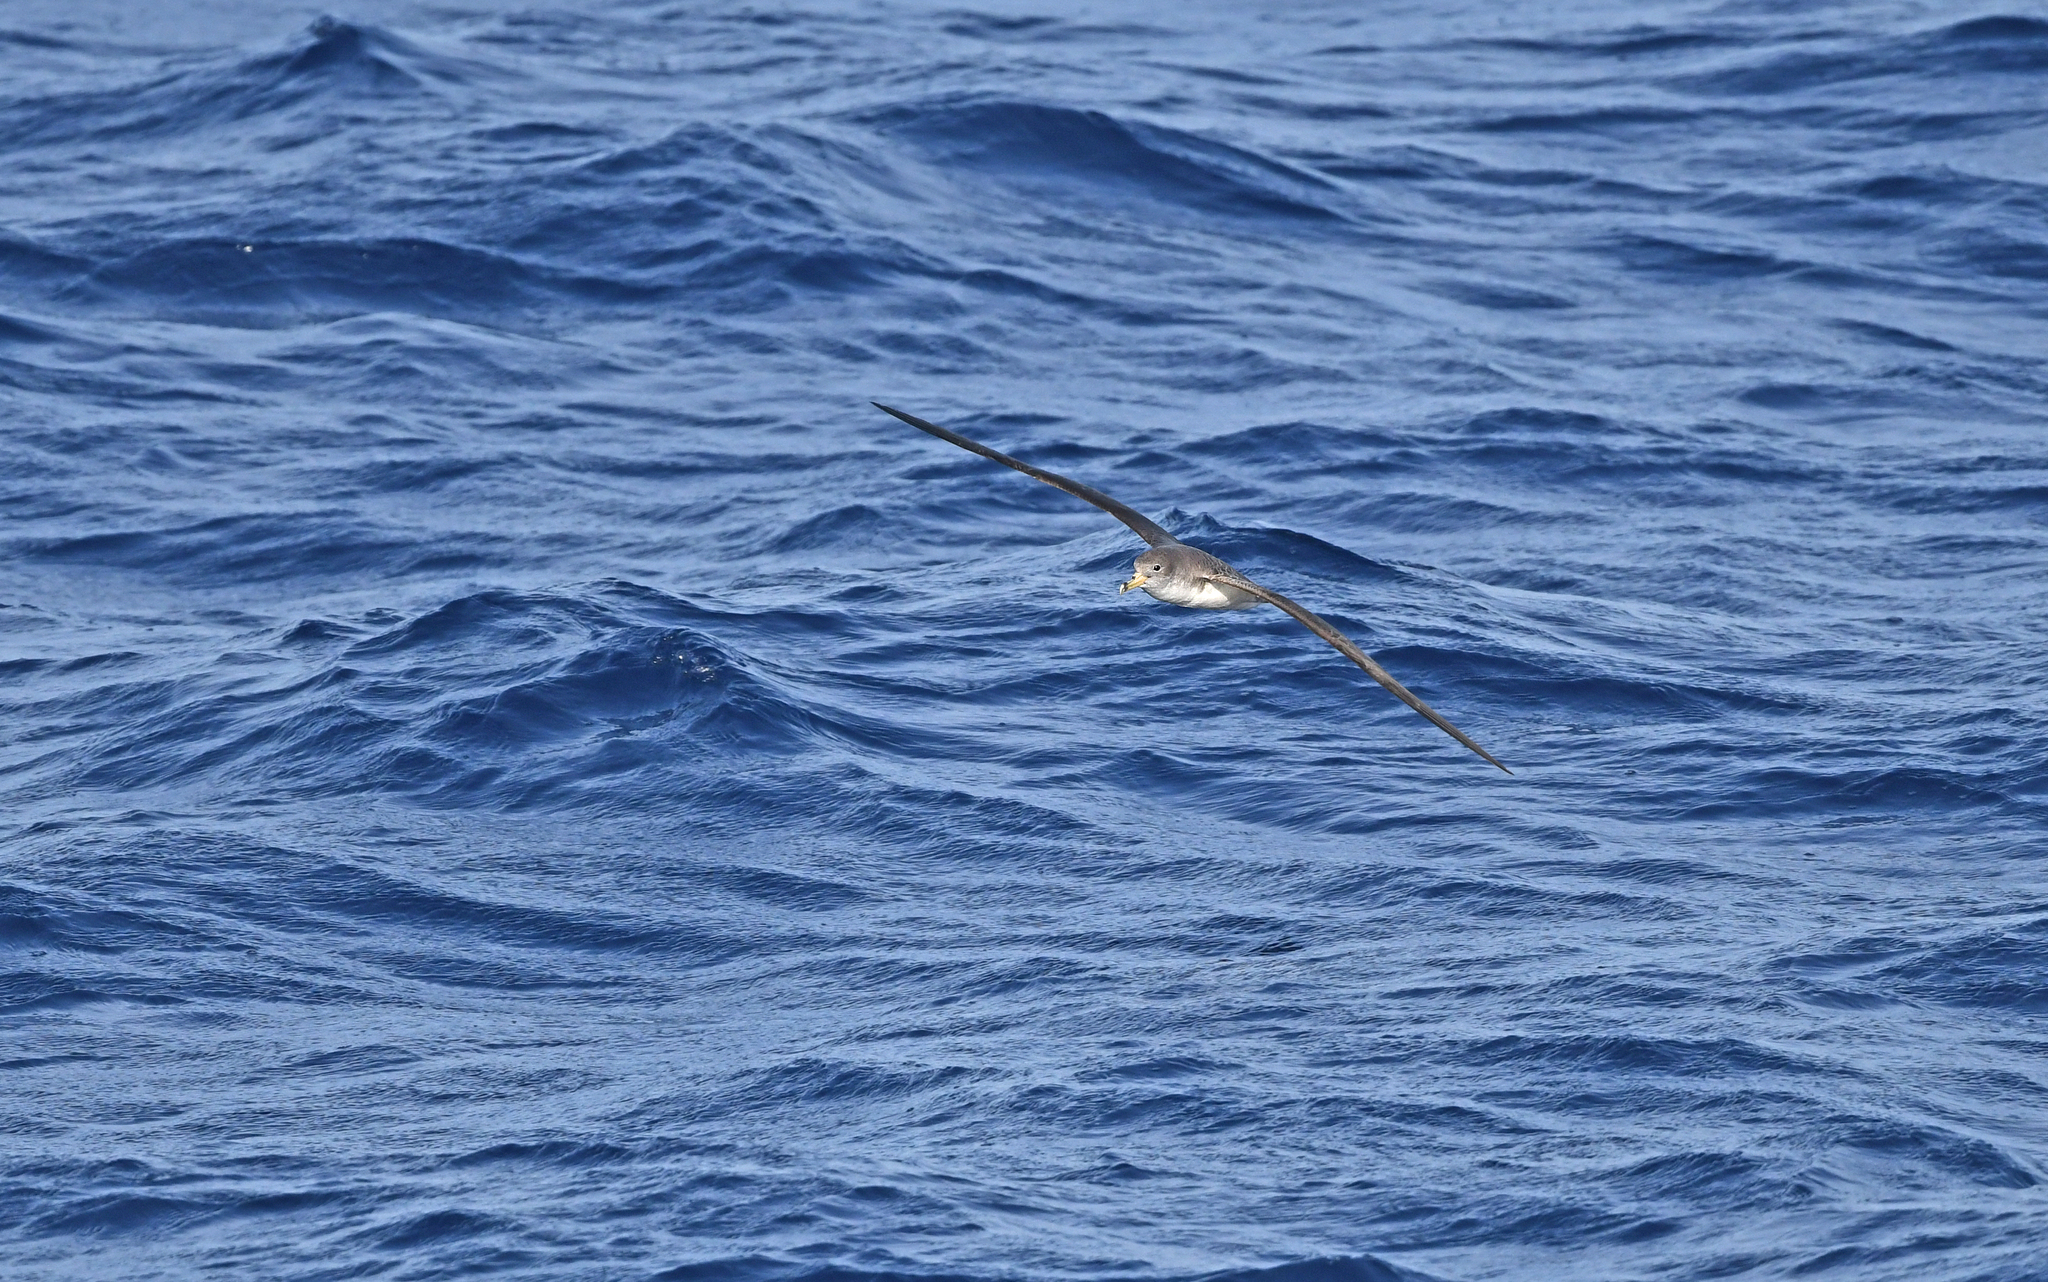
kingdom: Animalia
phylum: Chordata
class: Aves
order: Procellariiformes
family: Procellariidae
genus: Calonectris
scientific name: Calonectris diomedea
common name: Cory's shearwater
